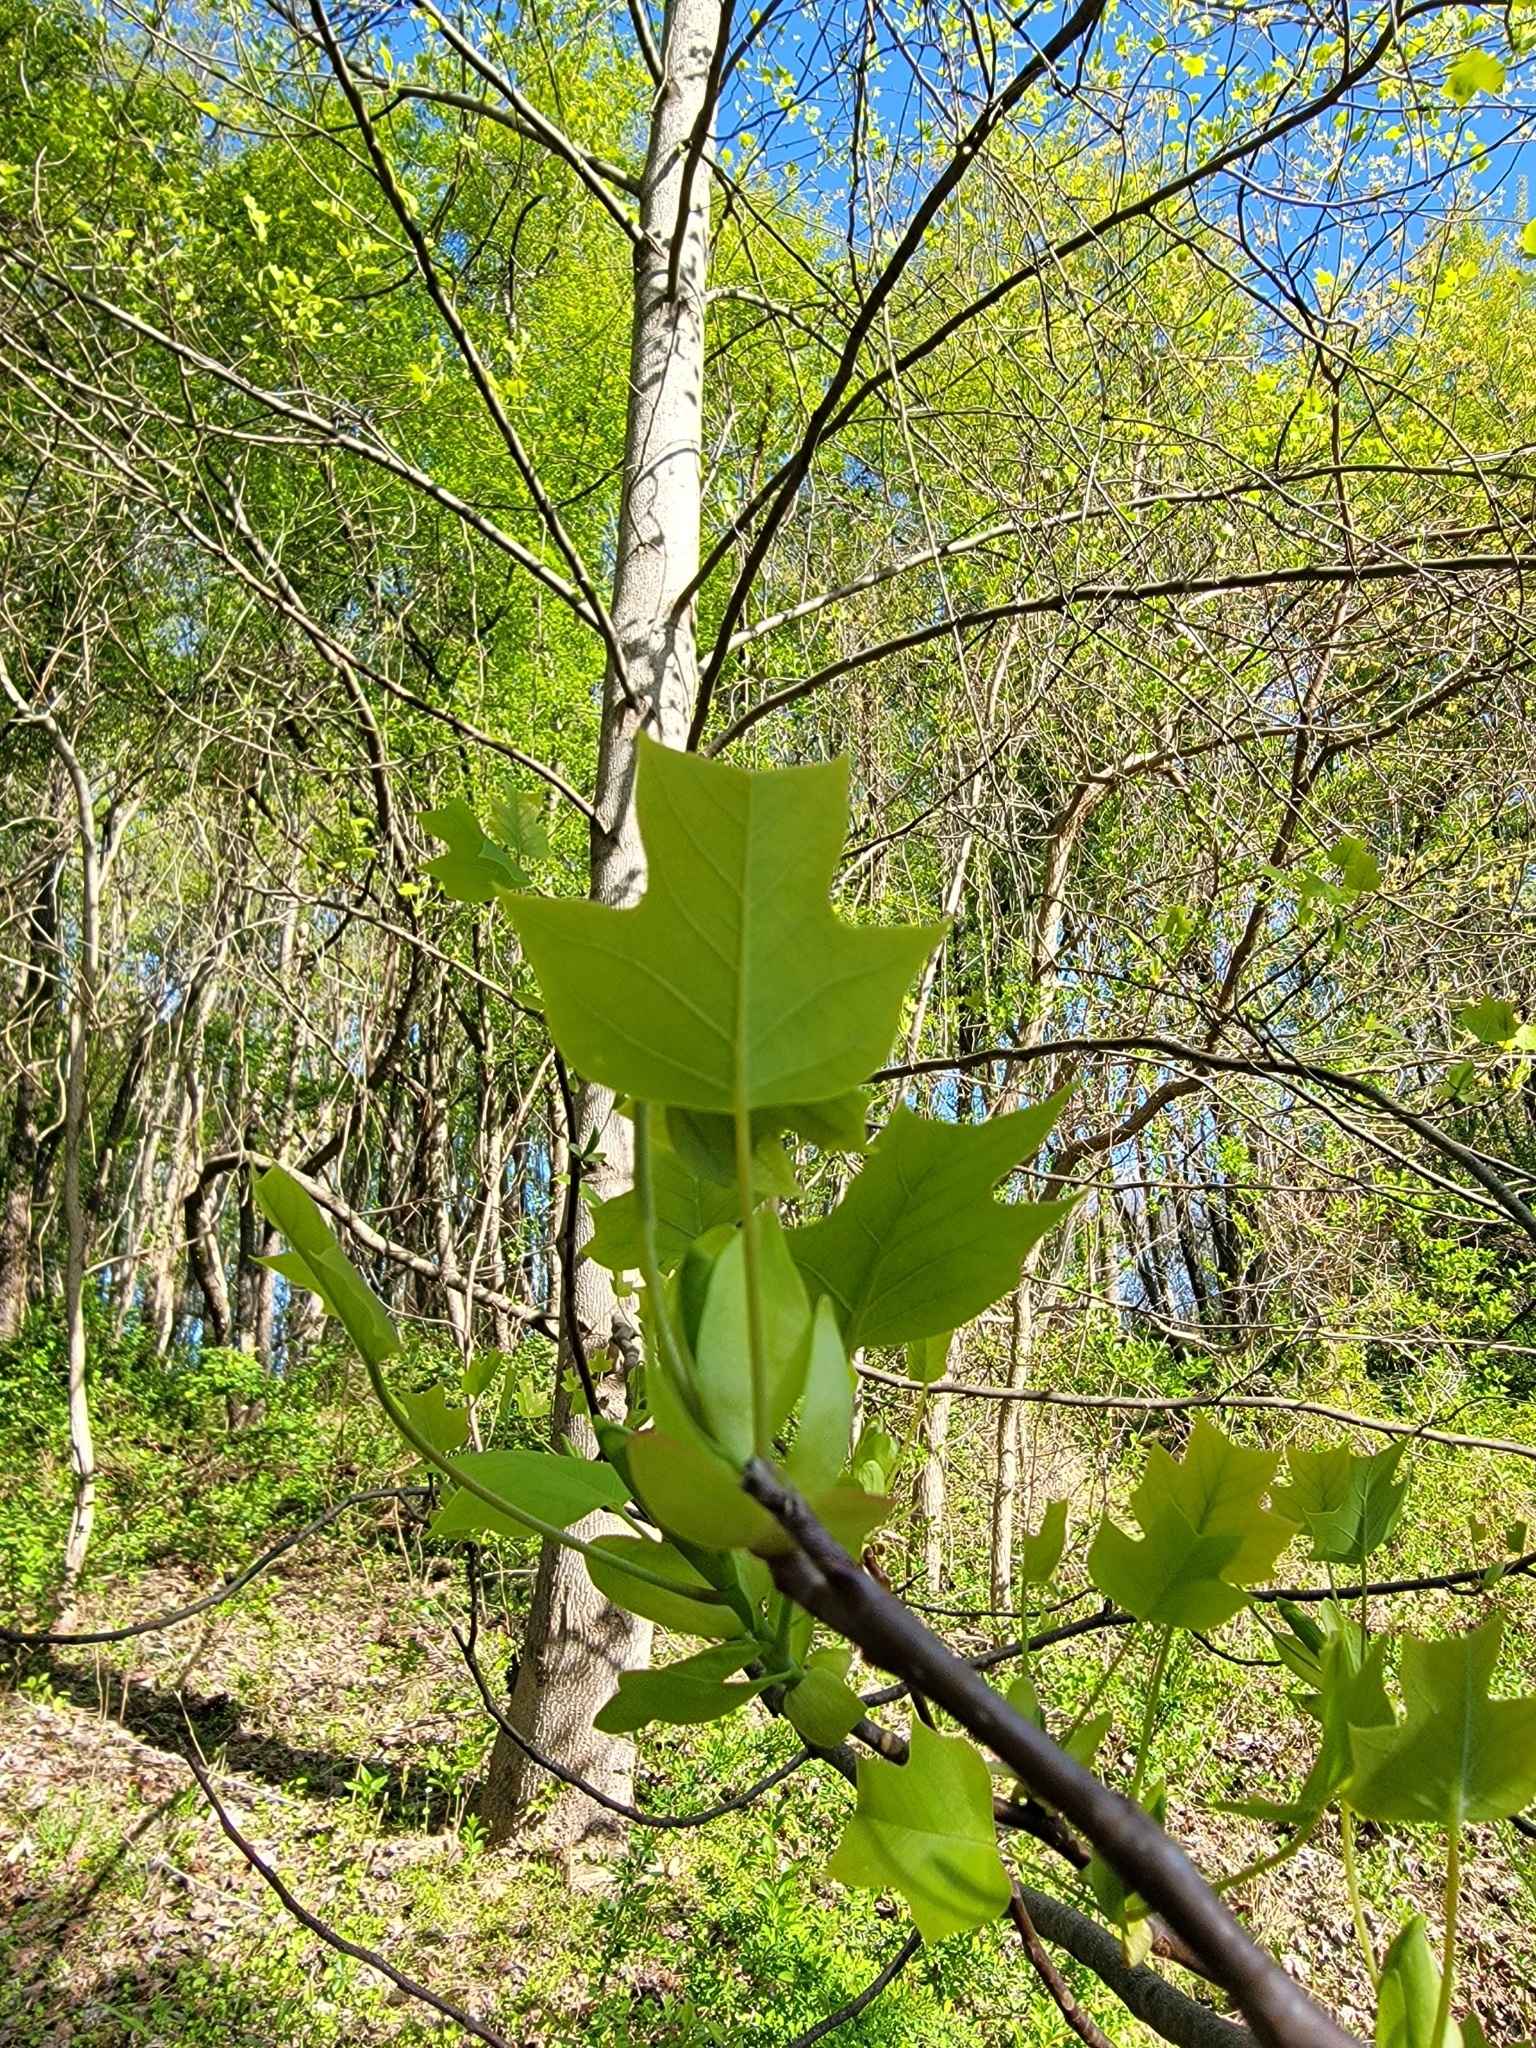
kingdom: Plantae
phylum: Tracheophyta
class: Magnoliopsida
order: Magnoliales
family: Magnoliaceae
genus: Liriodendron
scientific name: Liriodendron tulipifera
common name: Tulip tree
